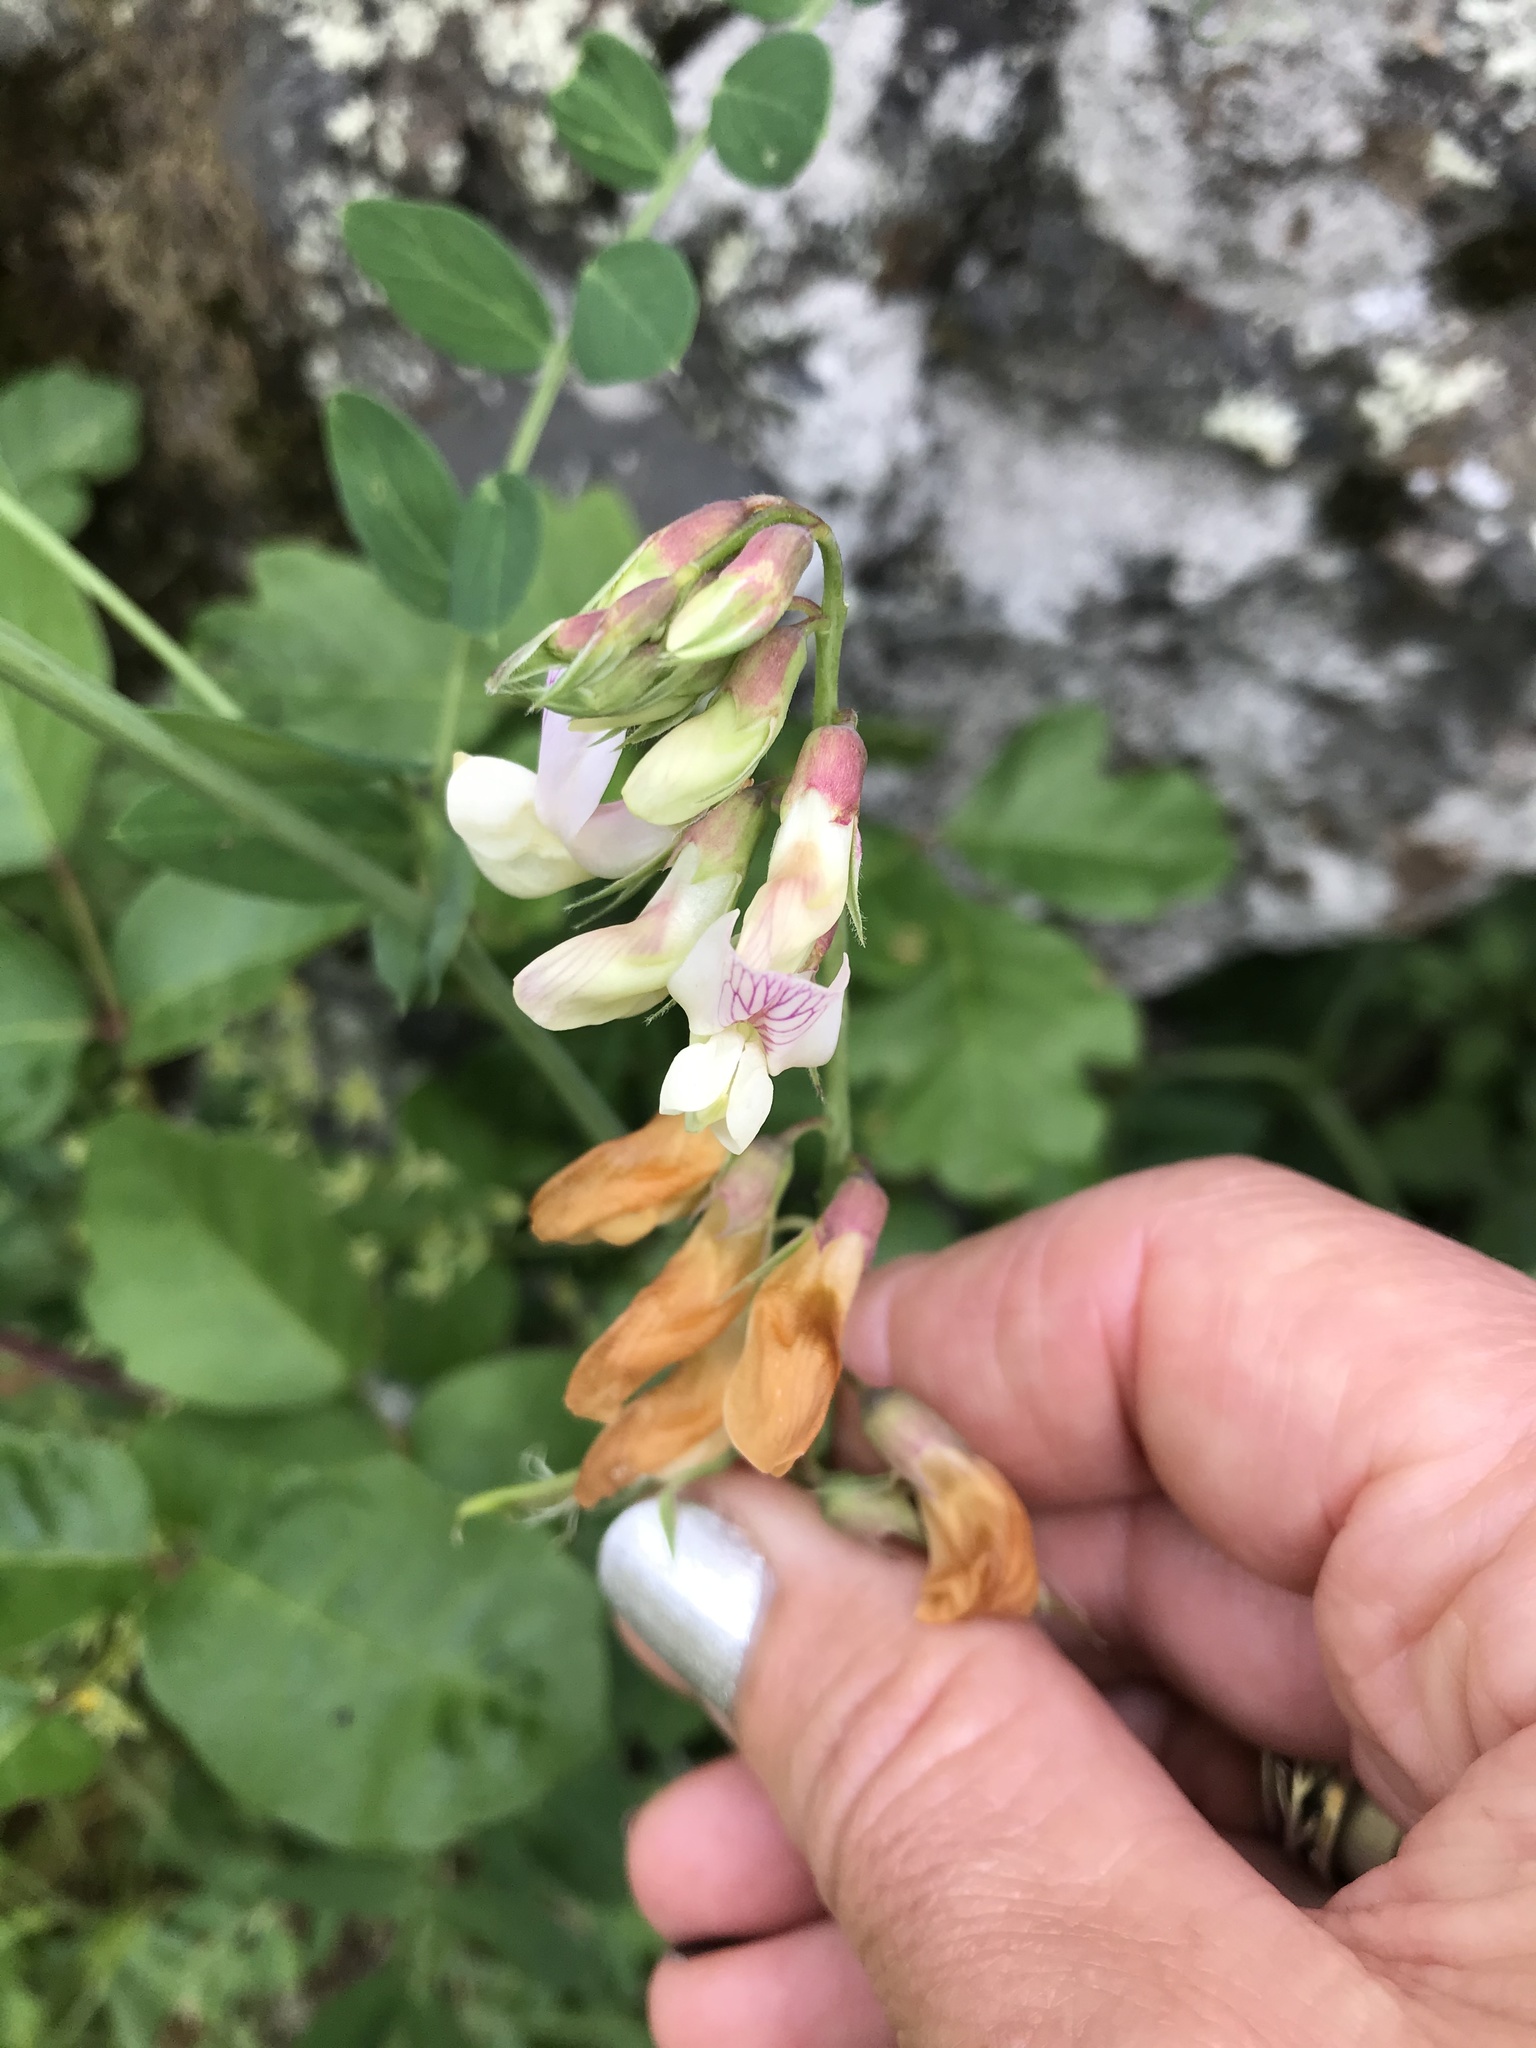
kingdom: Plantae
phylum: Tracheophyta
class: Magnoliopsida
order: Fabales
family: Fabaceae
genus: Lathyrus
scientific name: Lathyrus vestitus
